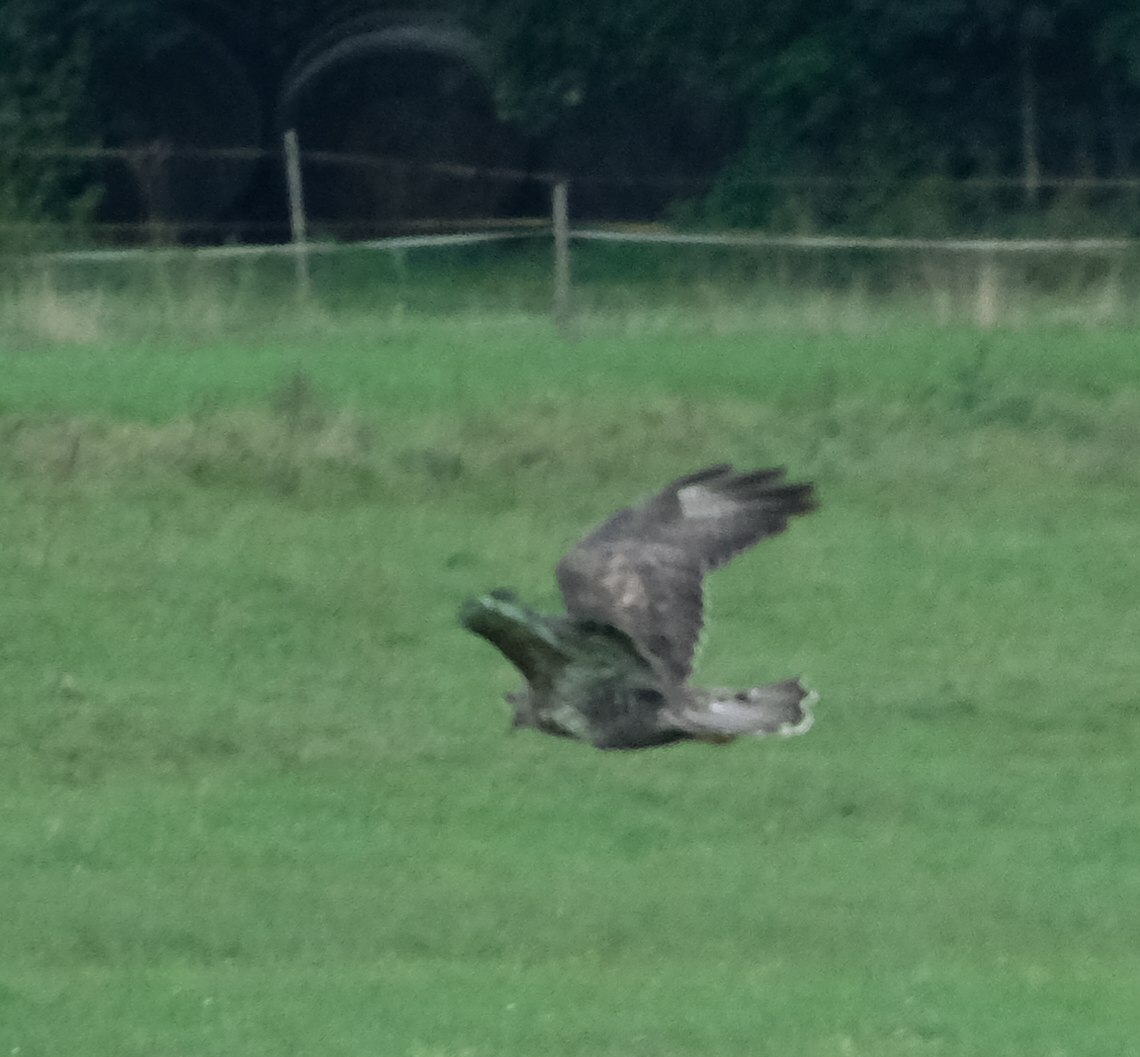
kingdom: Animalia
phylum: Chordata
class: Aves
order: Accipitriformes
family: Accipitridae
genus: Buteo
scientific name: Buteo buteo
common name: Common buzzard
